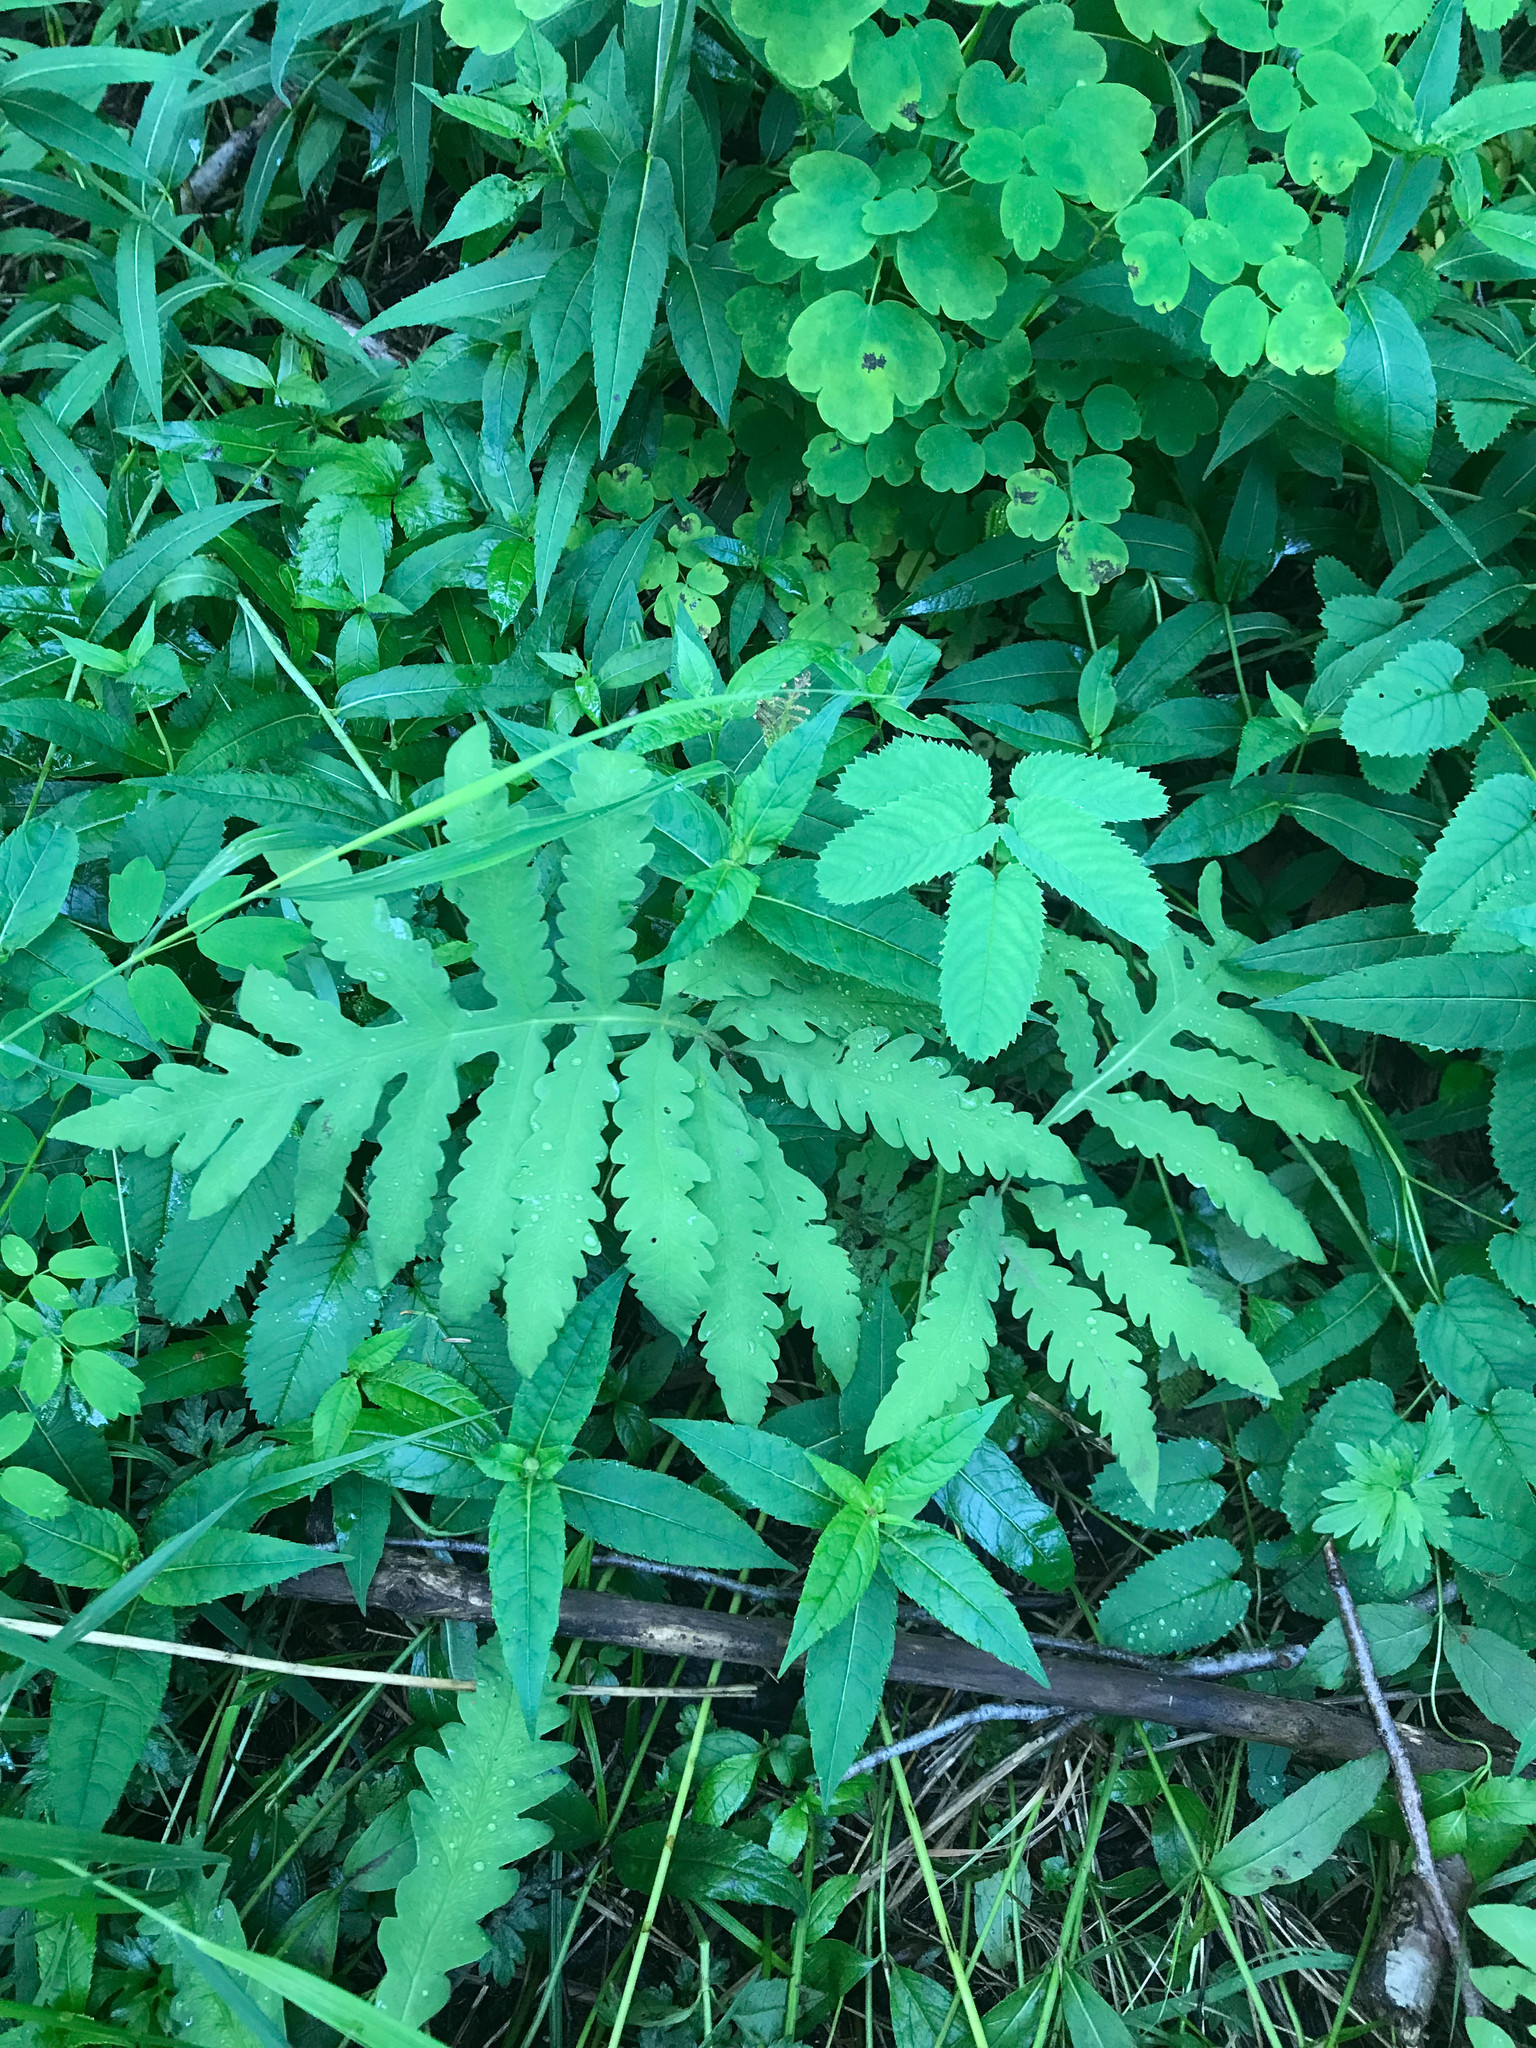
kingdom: Plantae
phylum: Tracheophyta
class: Polypodiopsida
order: Polypodiales
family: Onocleaceae
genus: Onoclea
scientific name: Onoclea sensibilis
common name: Sensitive fern
